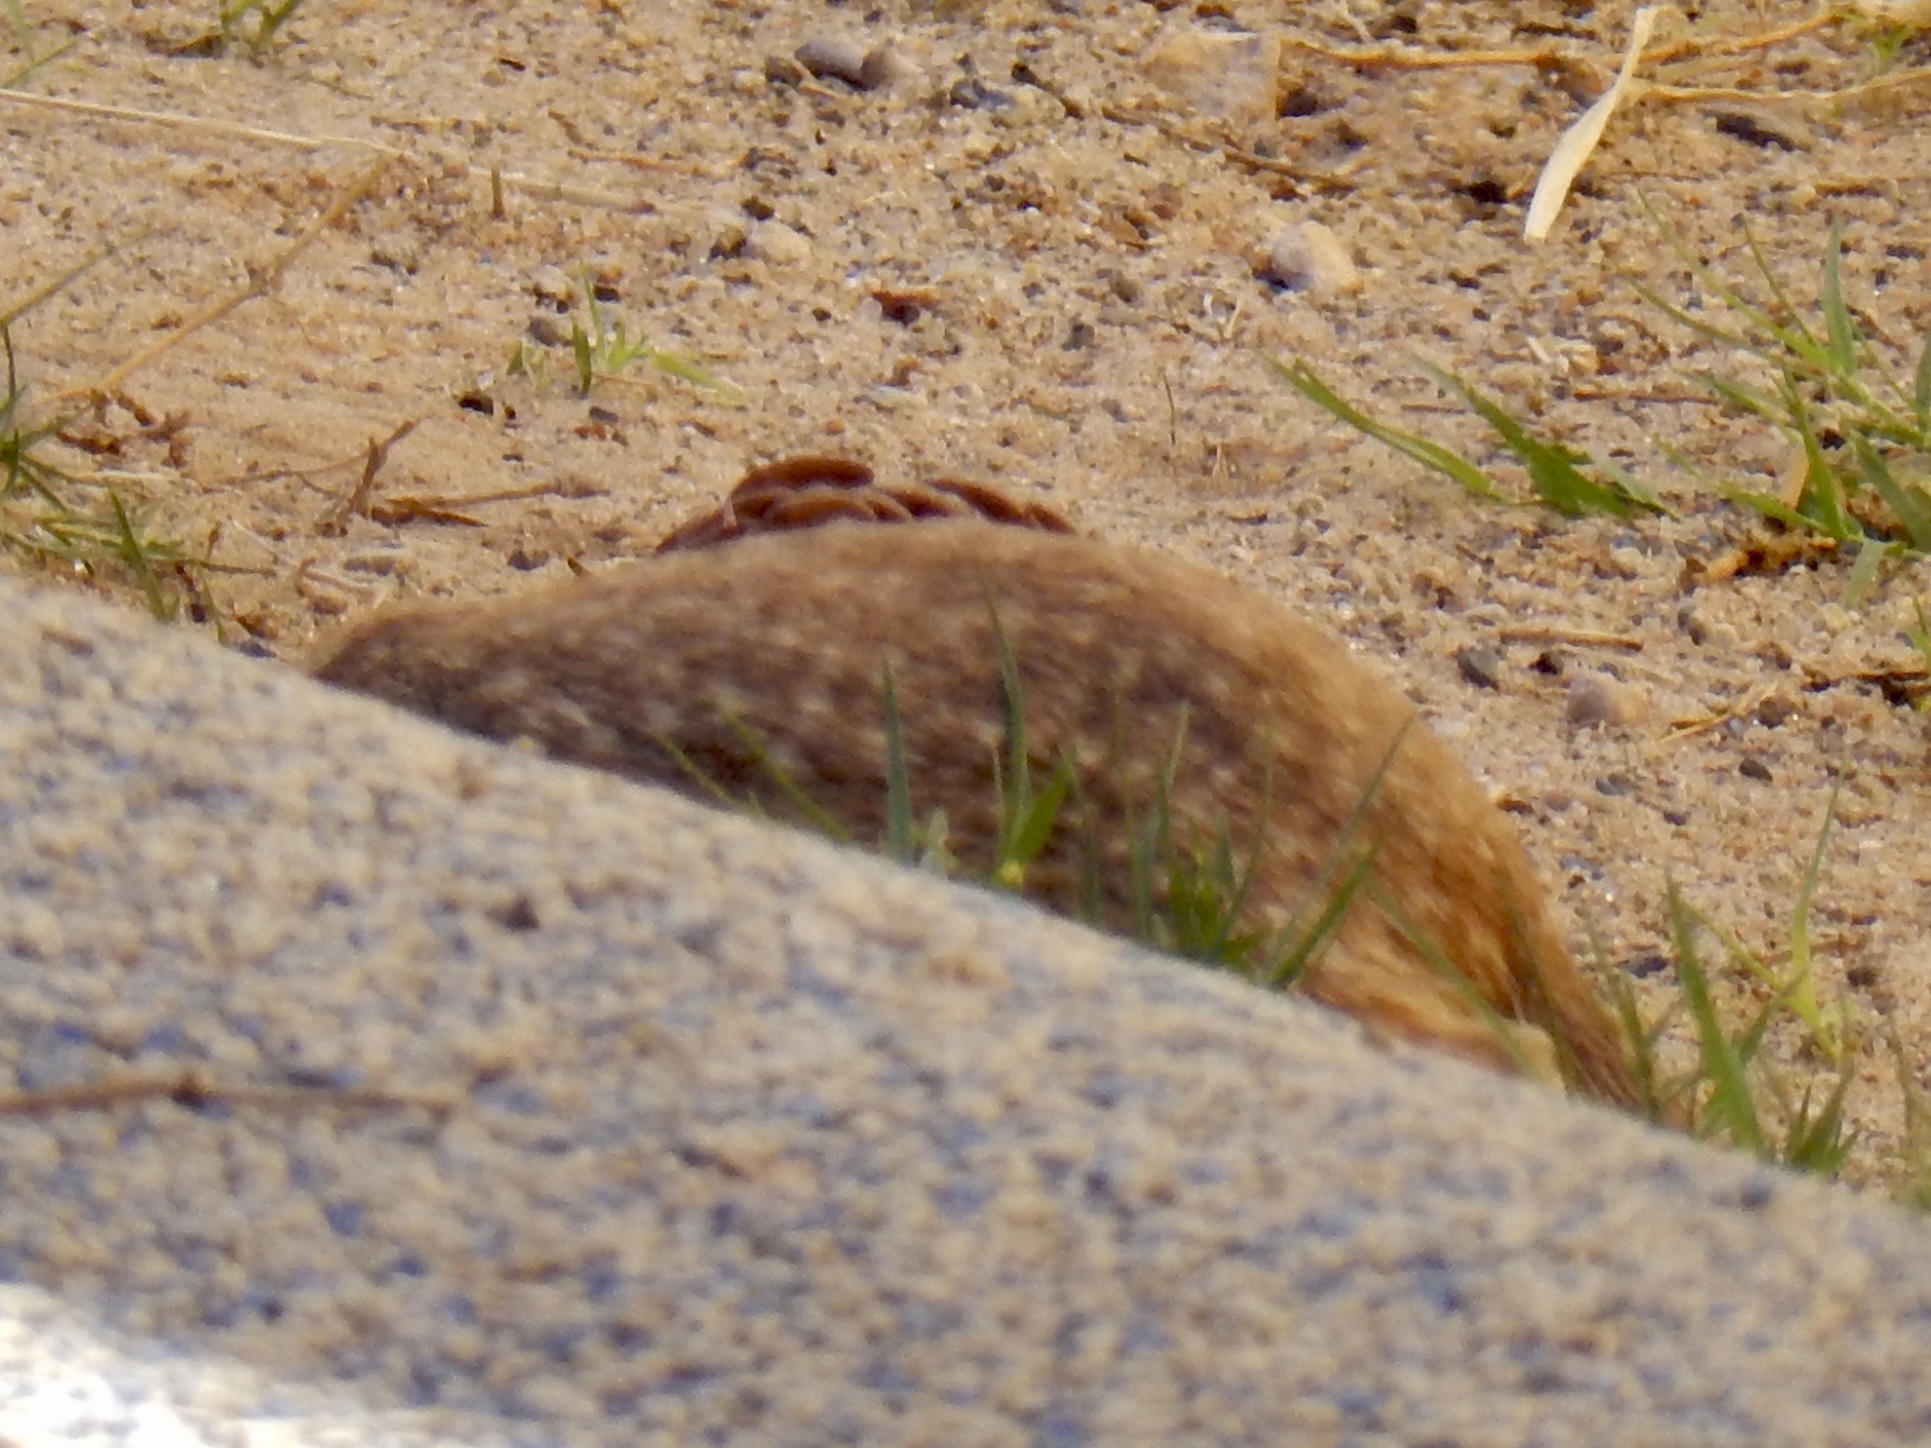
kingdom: Animalia
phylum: Chordata
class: Mammalia
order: Rodentia
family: Sciuridae
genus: Xerospermophilus
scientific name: Xerospermophilus spilosoma
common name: Spotted ground squirrel
